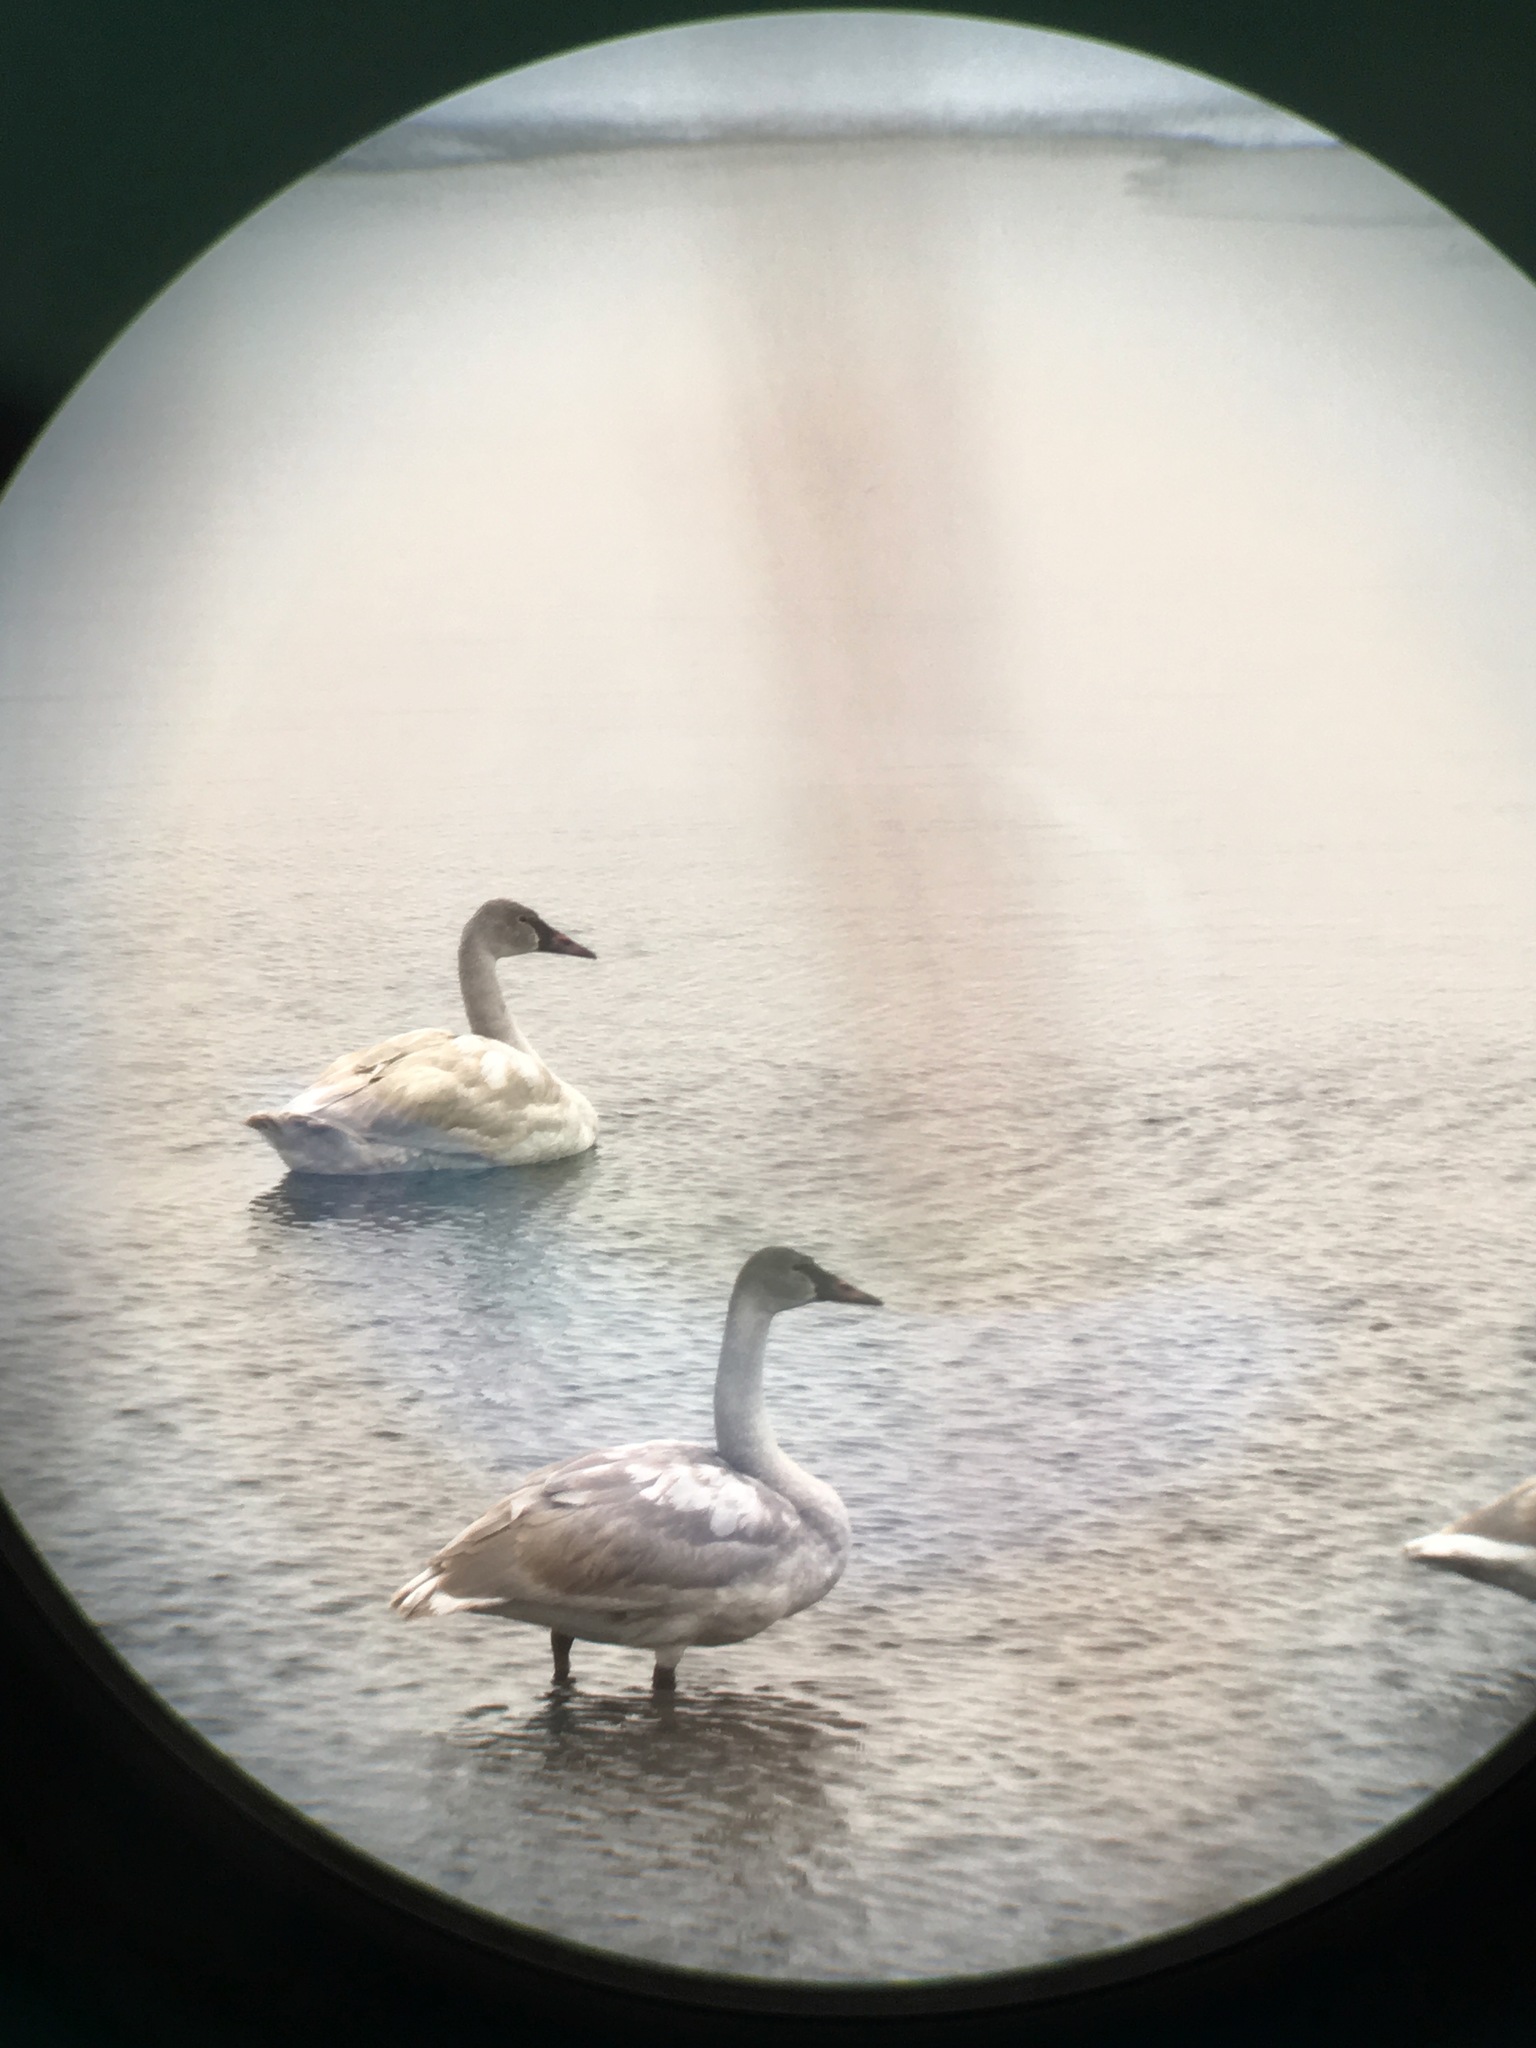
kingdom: Animalia
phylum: Chordata
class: Aves
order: Anseriformes
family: Anatidae
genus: Cygnus
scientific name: Cygnus buccinator
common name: Trumpeter swan
